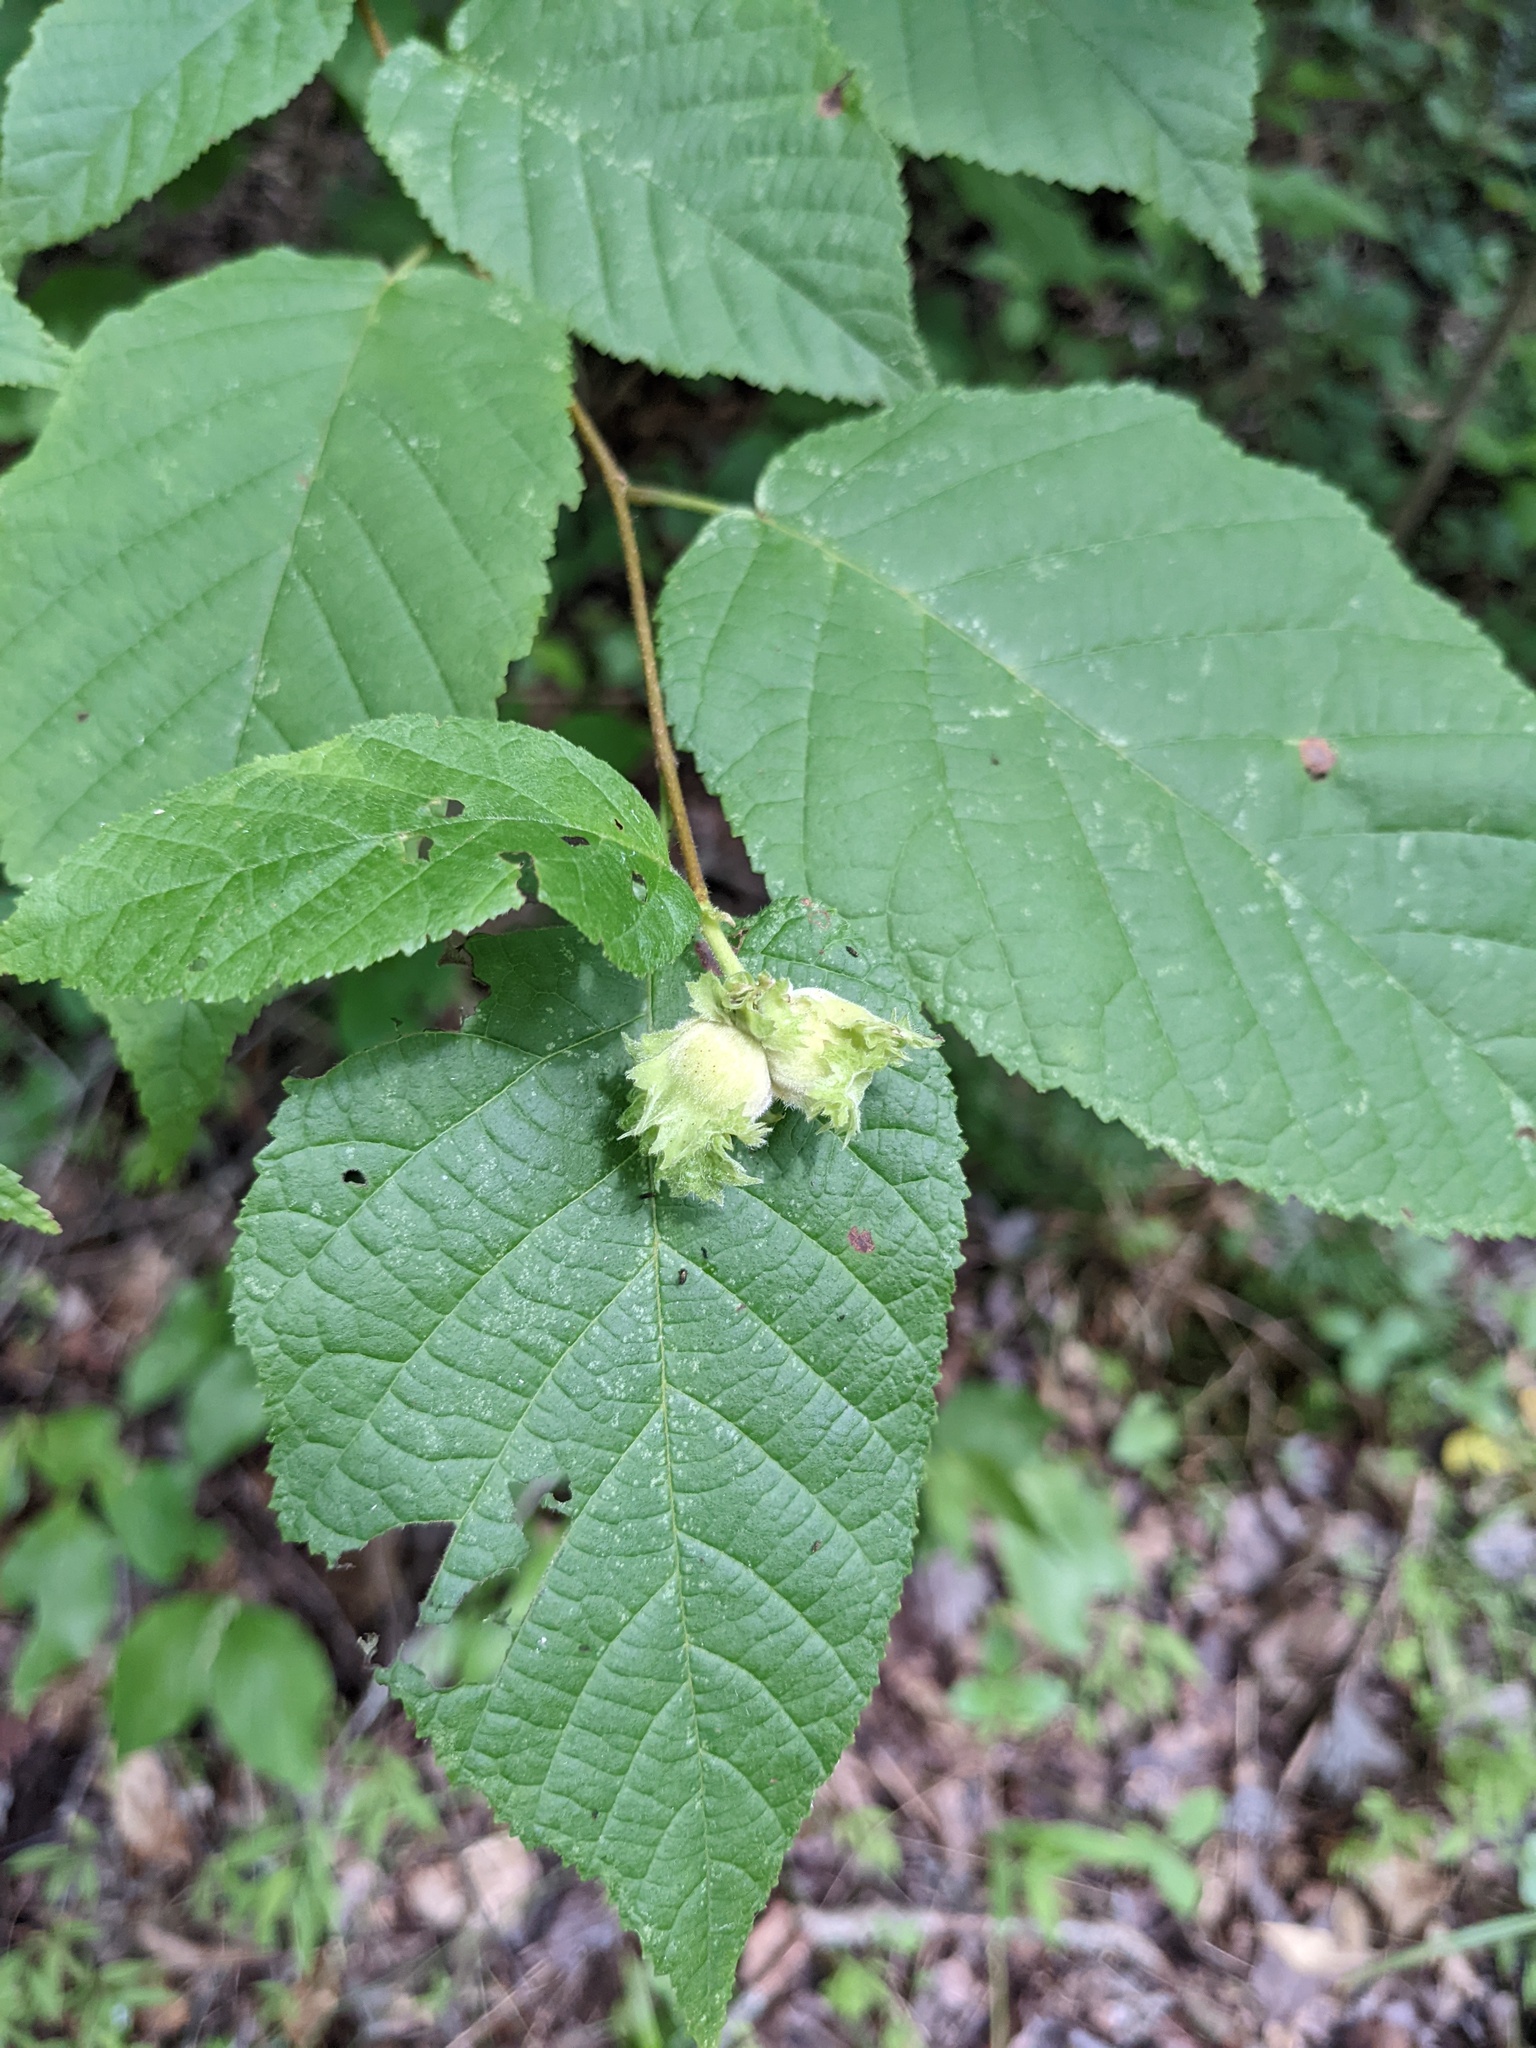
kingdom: Plantae
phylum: Tracheophyta
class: Magnoliopsida
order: Fagales
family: Betulaceae
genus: Corylus
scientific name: Corylus americana
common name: American hazel
